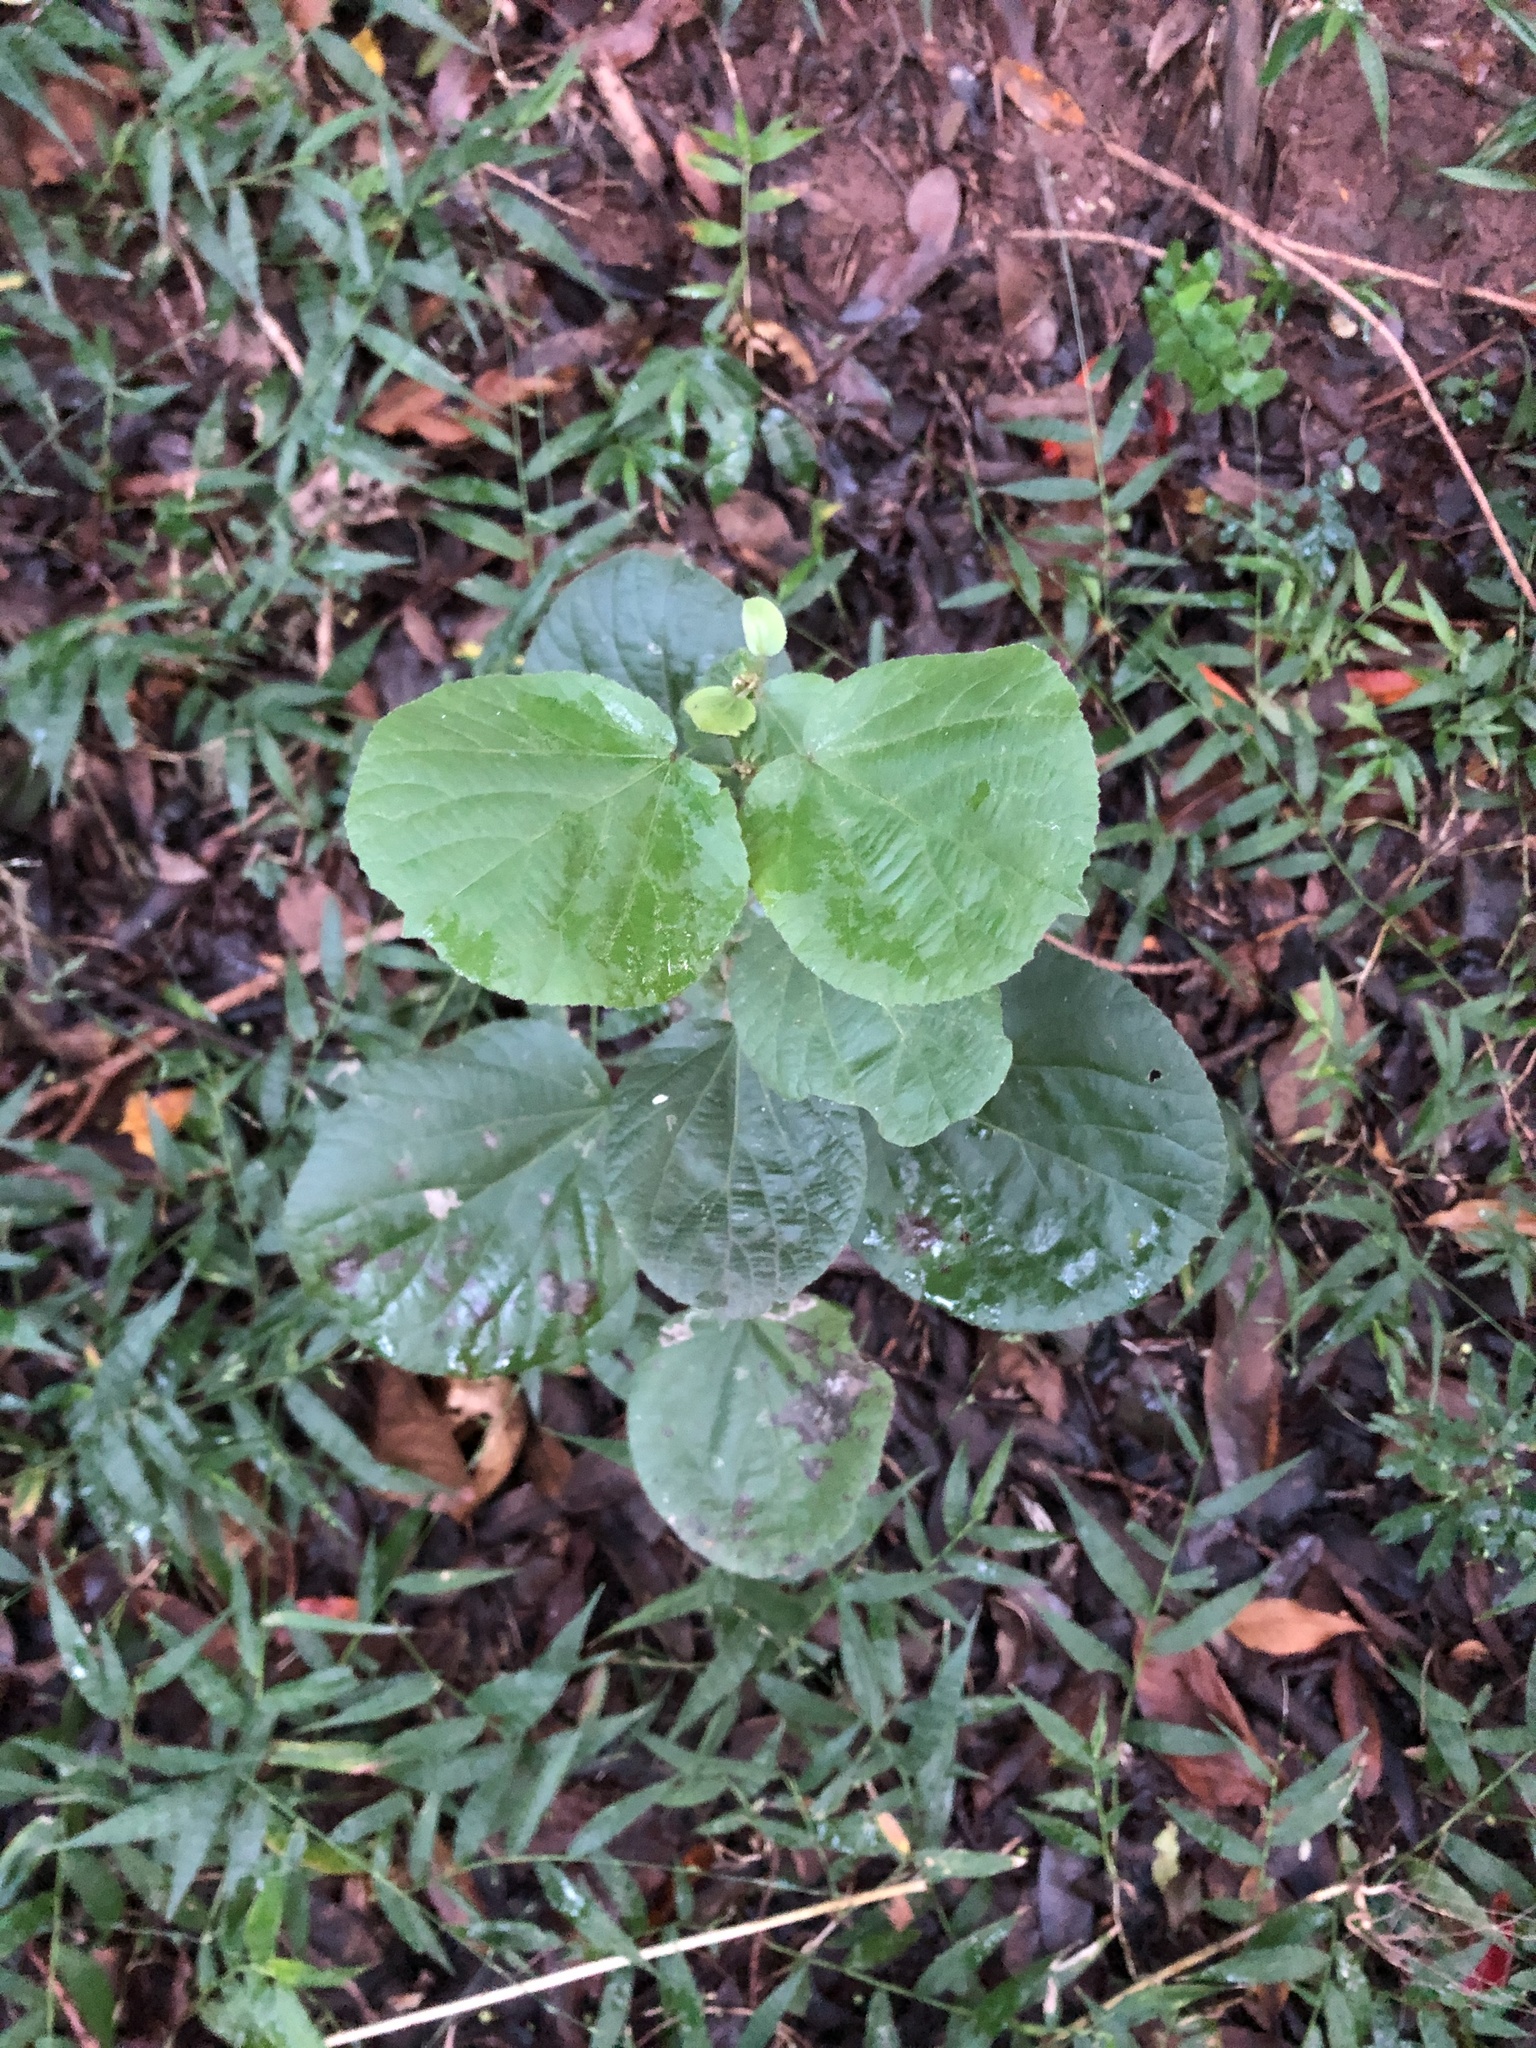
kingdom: Plantae
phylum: Tracheophyta
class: Magnoliopsida
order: Malpighiales
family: Salicaceae
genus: Trimeria
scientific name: Trimeria grandifolia
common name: Wild mulberry
